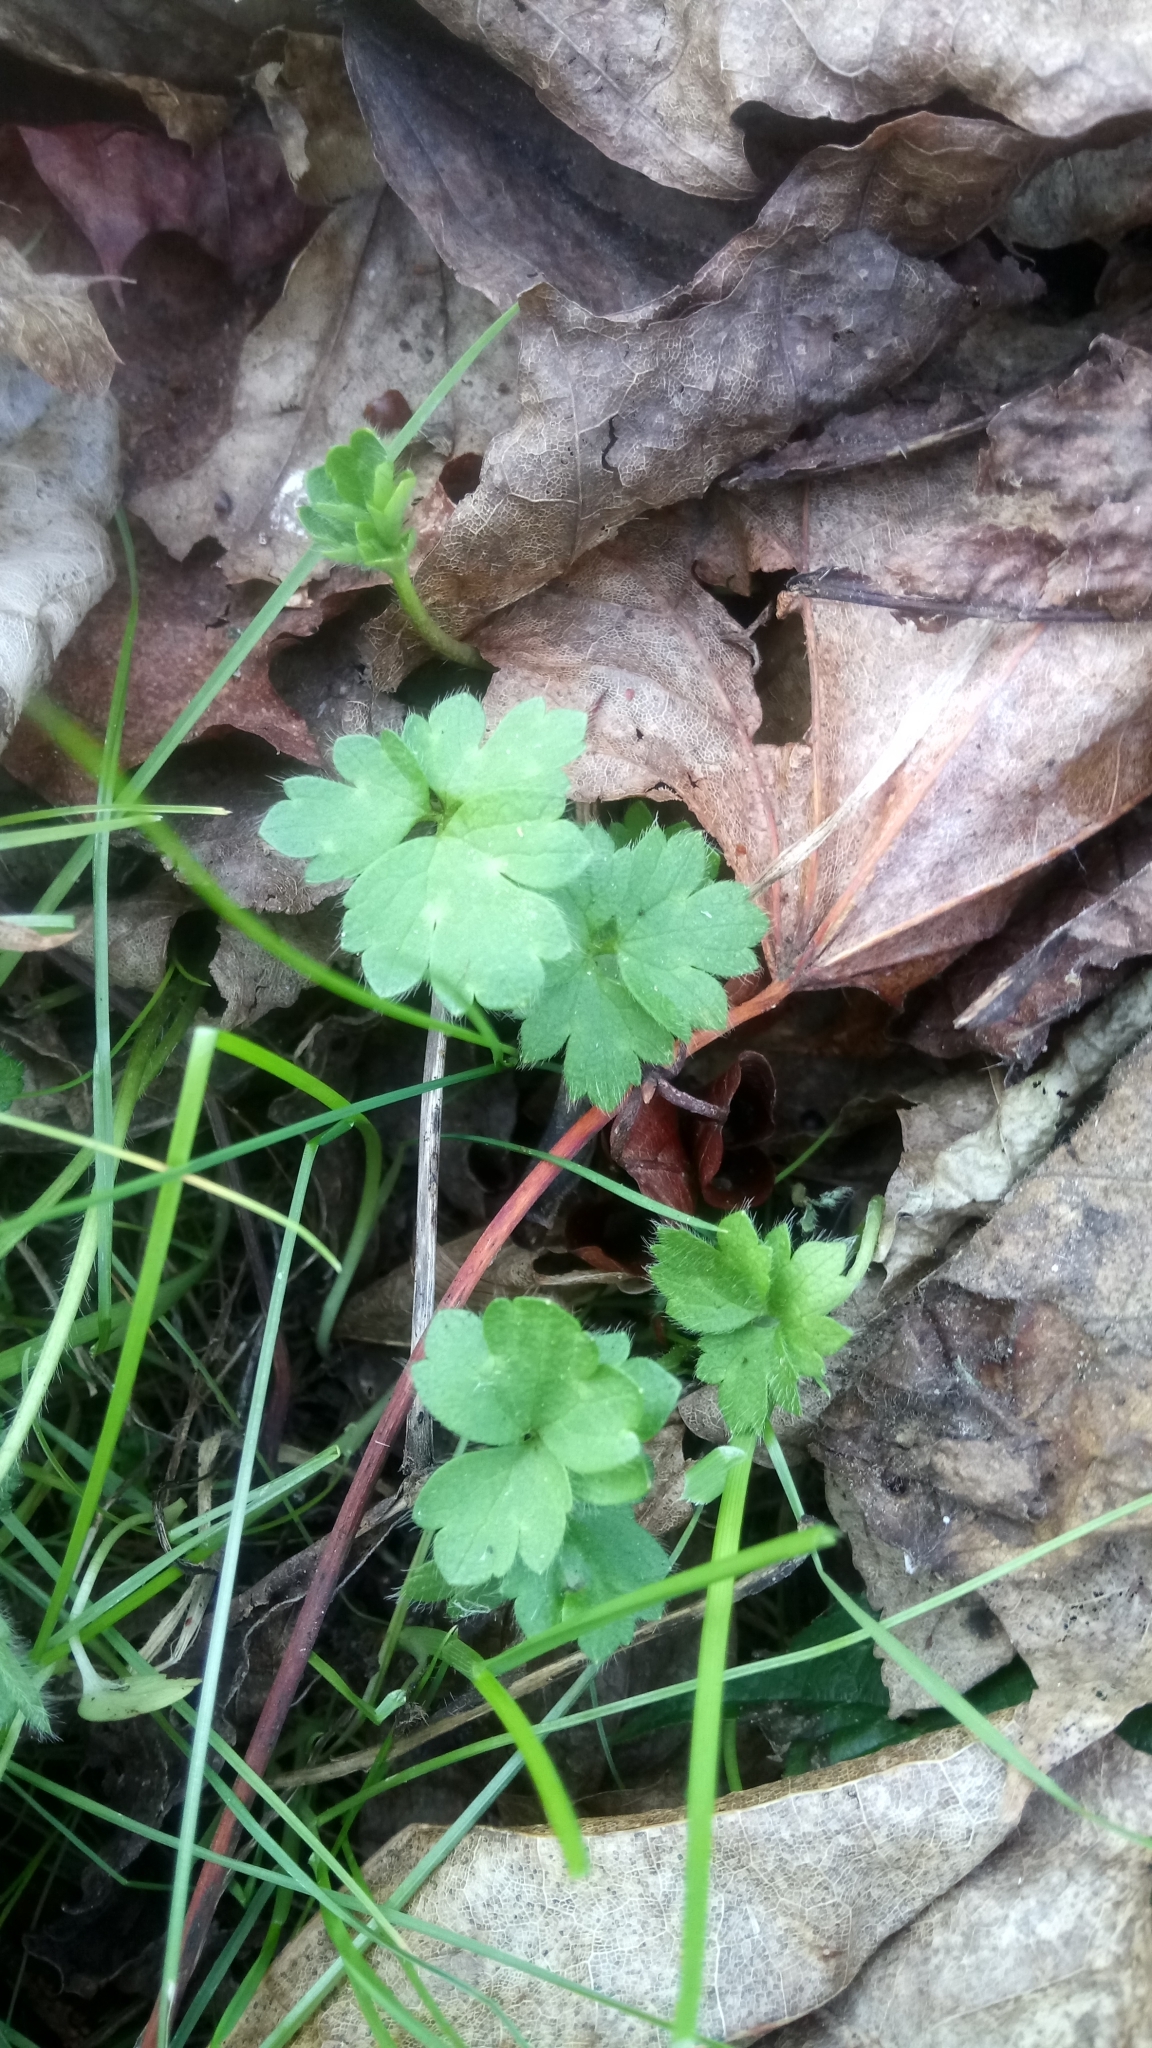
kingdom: Plantae
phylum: Tracheophyta
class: Magnoliopsida
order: Ranunculales
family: Ranunculaceae
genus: Ranunculus
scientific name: Ranunculus repens
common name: Creeping buttercup
